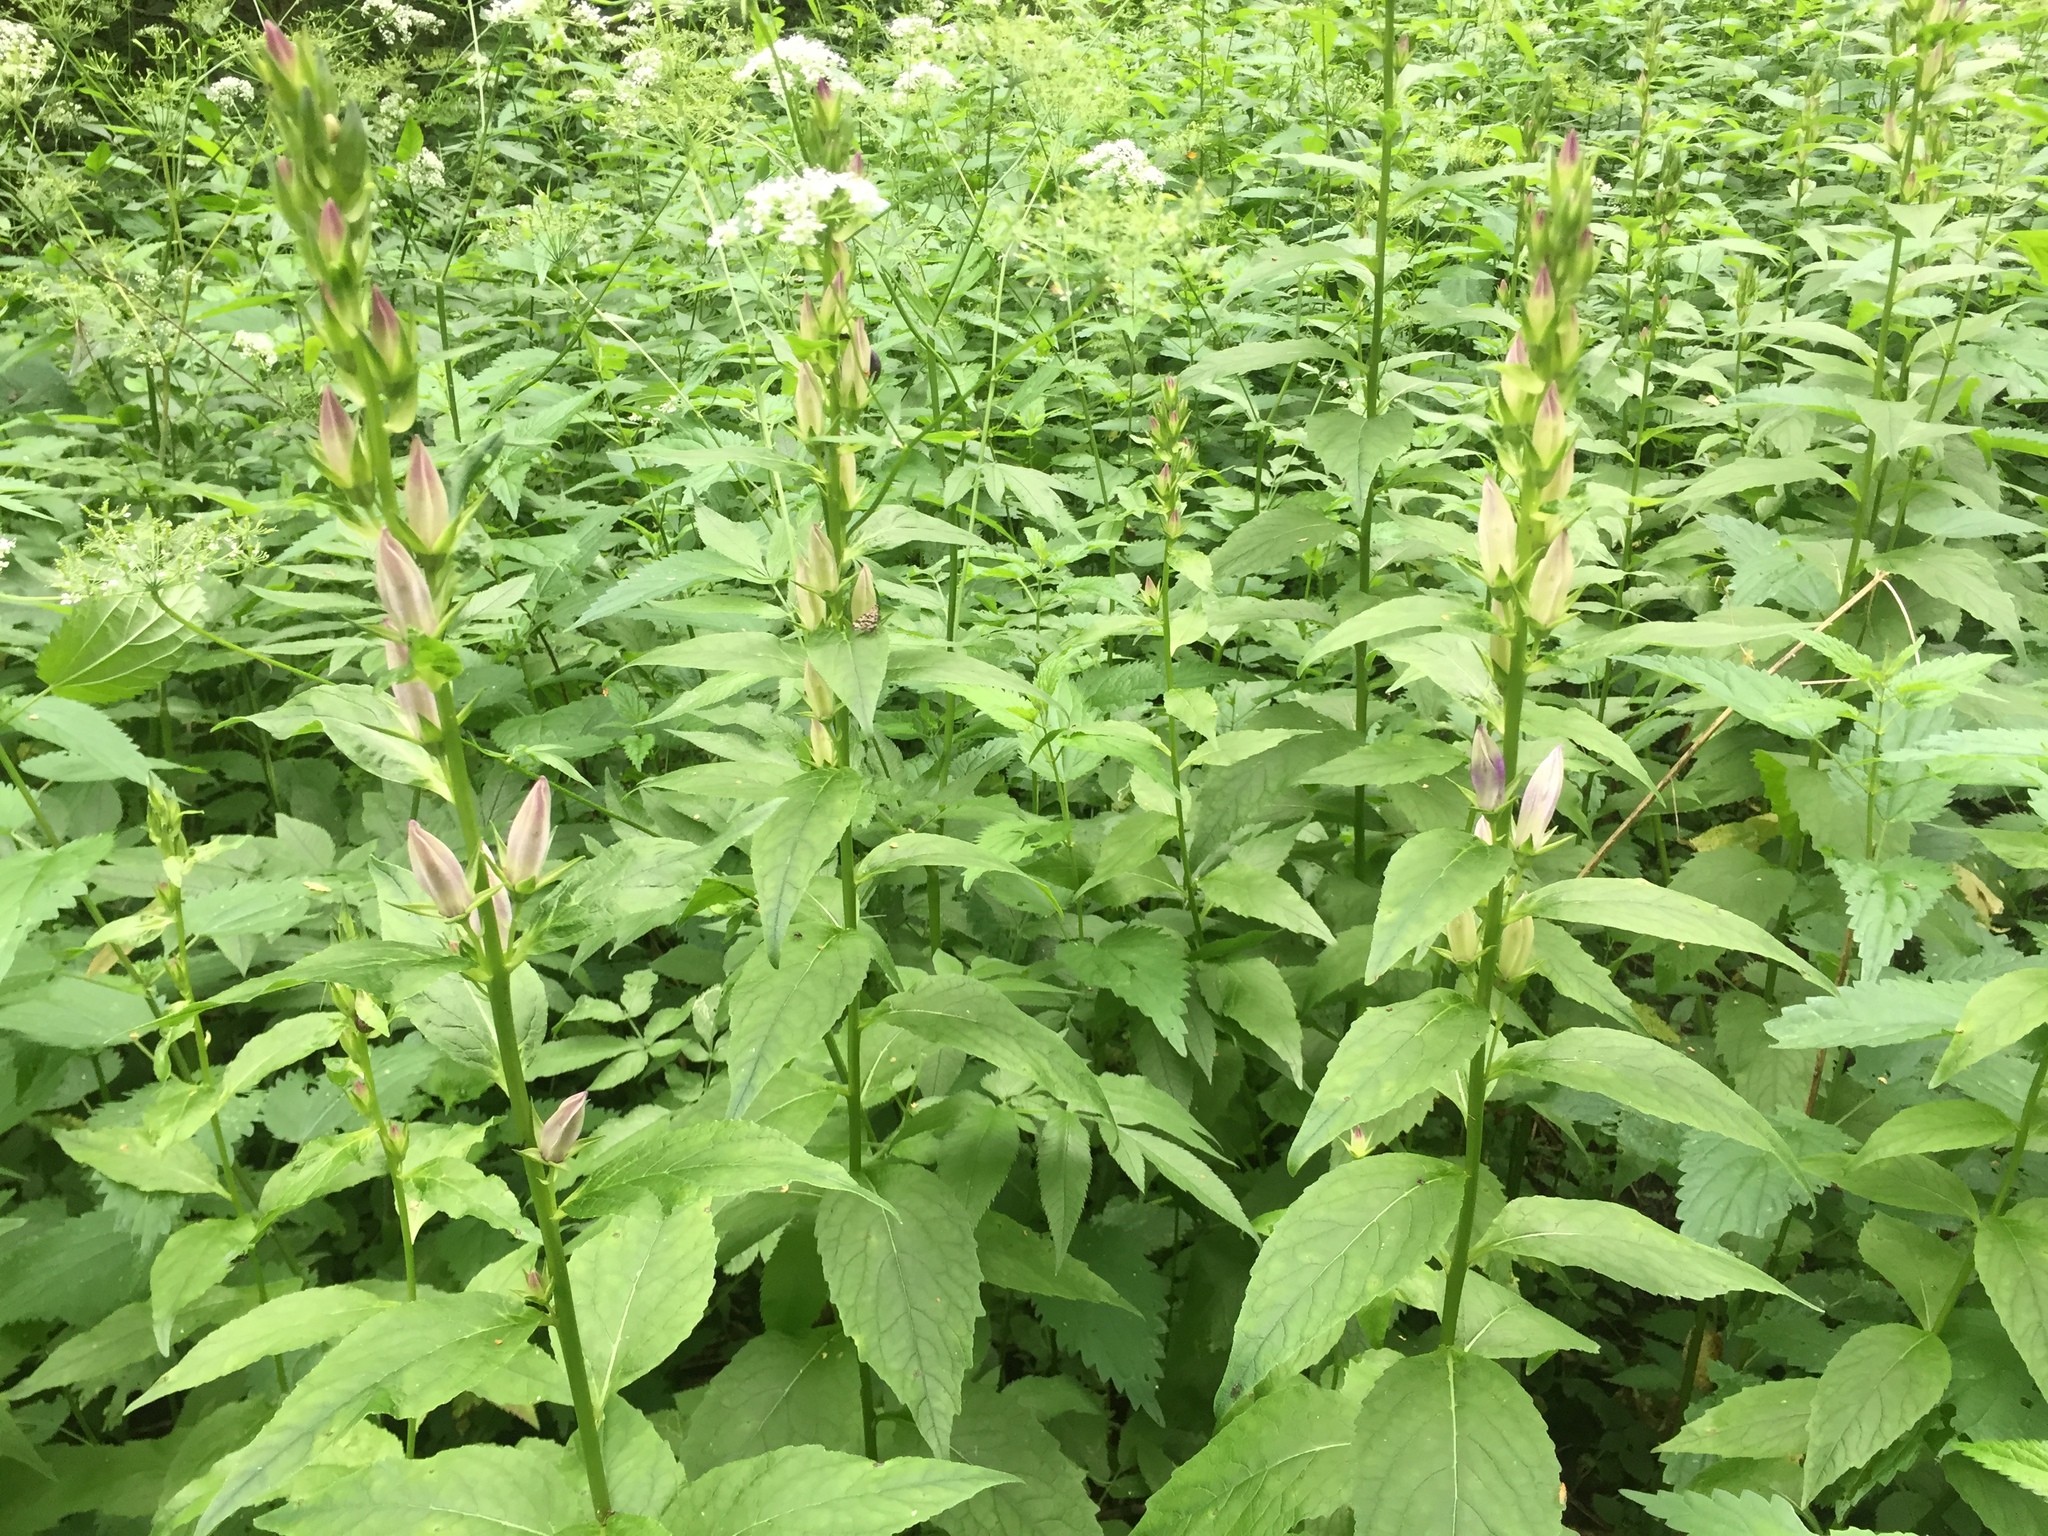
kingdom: Plantae
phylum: Tracheophyta
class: Magnoliopsida
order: Asterales
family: Campanulaceae
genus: Campanula
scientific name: Campanula latifolia
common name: Giant bellflower
